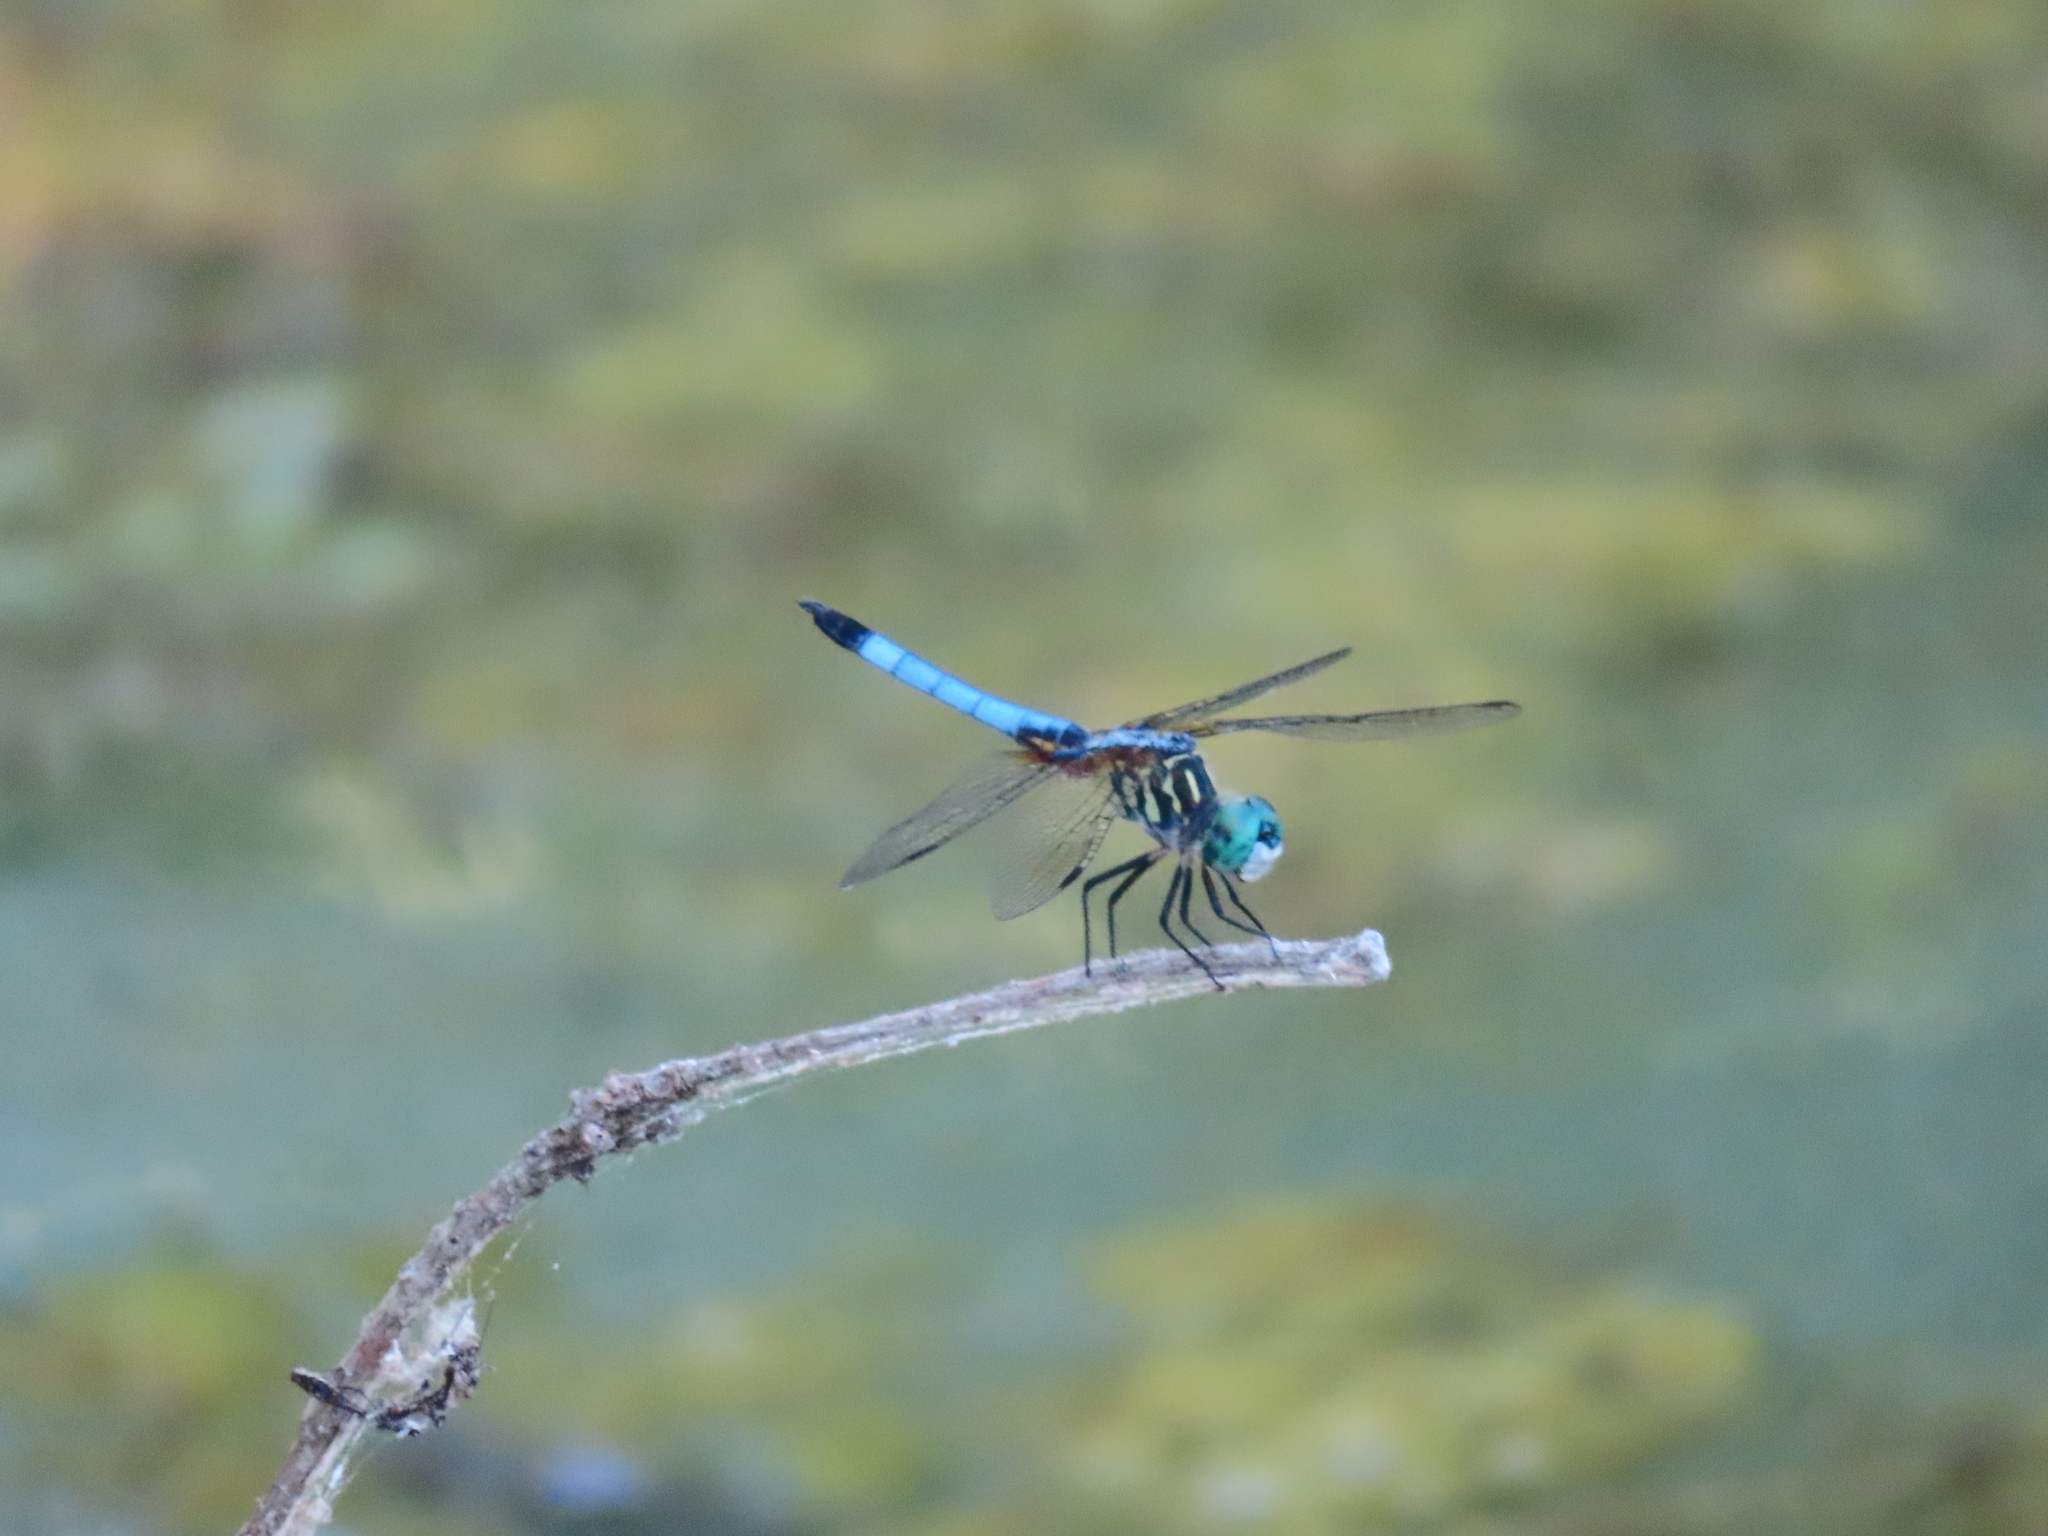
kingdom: Animalia
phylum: Arthropoda
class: Insecta
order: Odonata
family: Libellulidae
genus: Pachydiplax
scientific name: Pachydiplax longipennis
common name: Blue dasher
